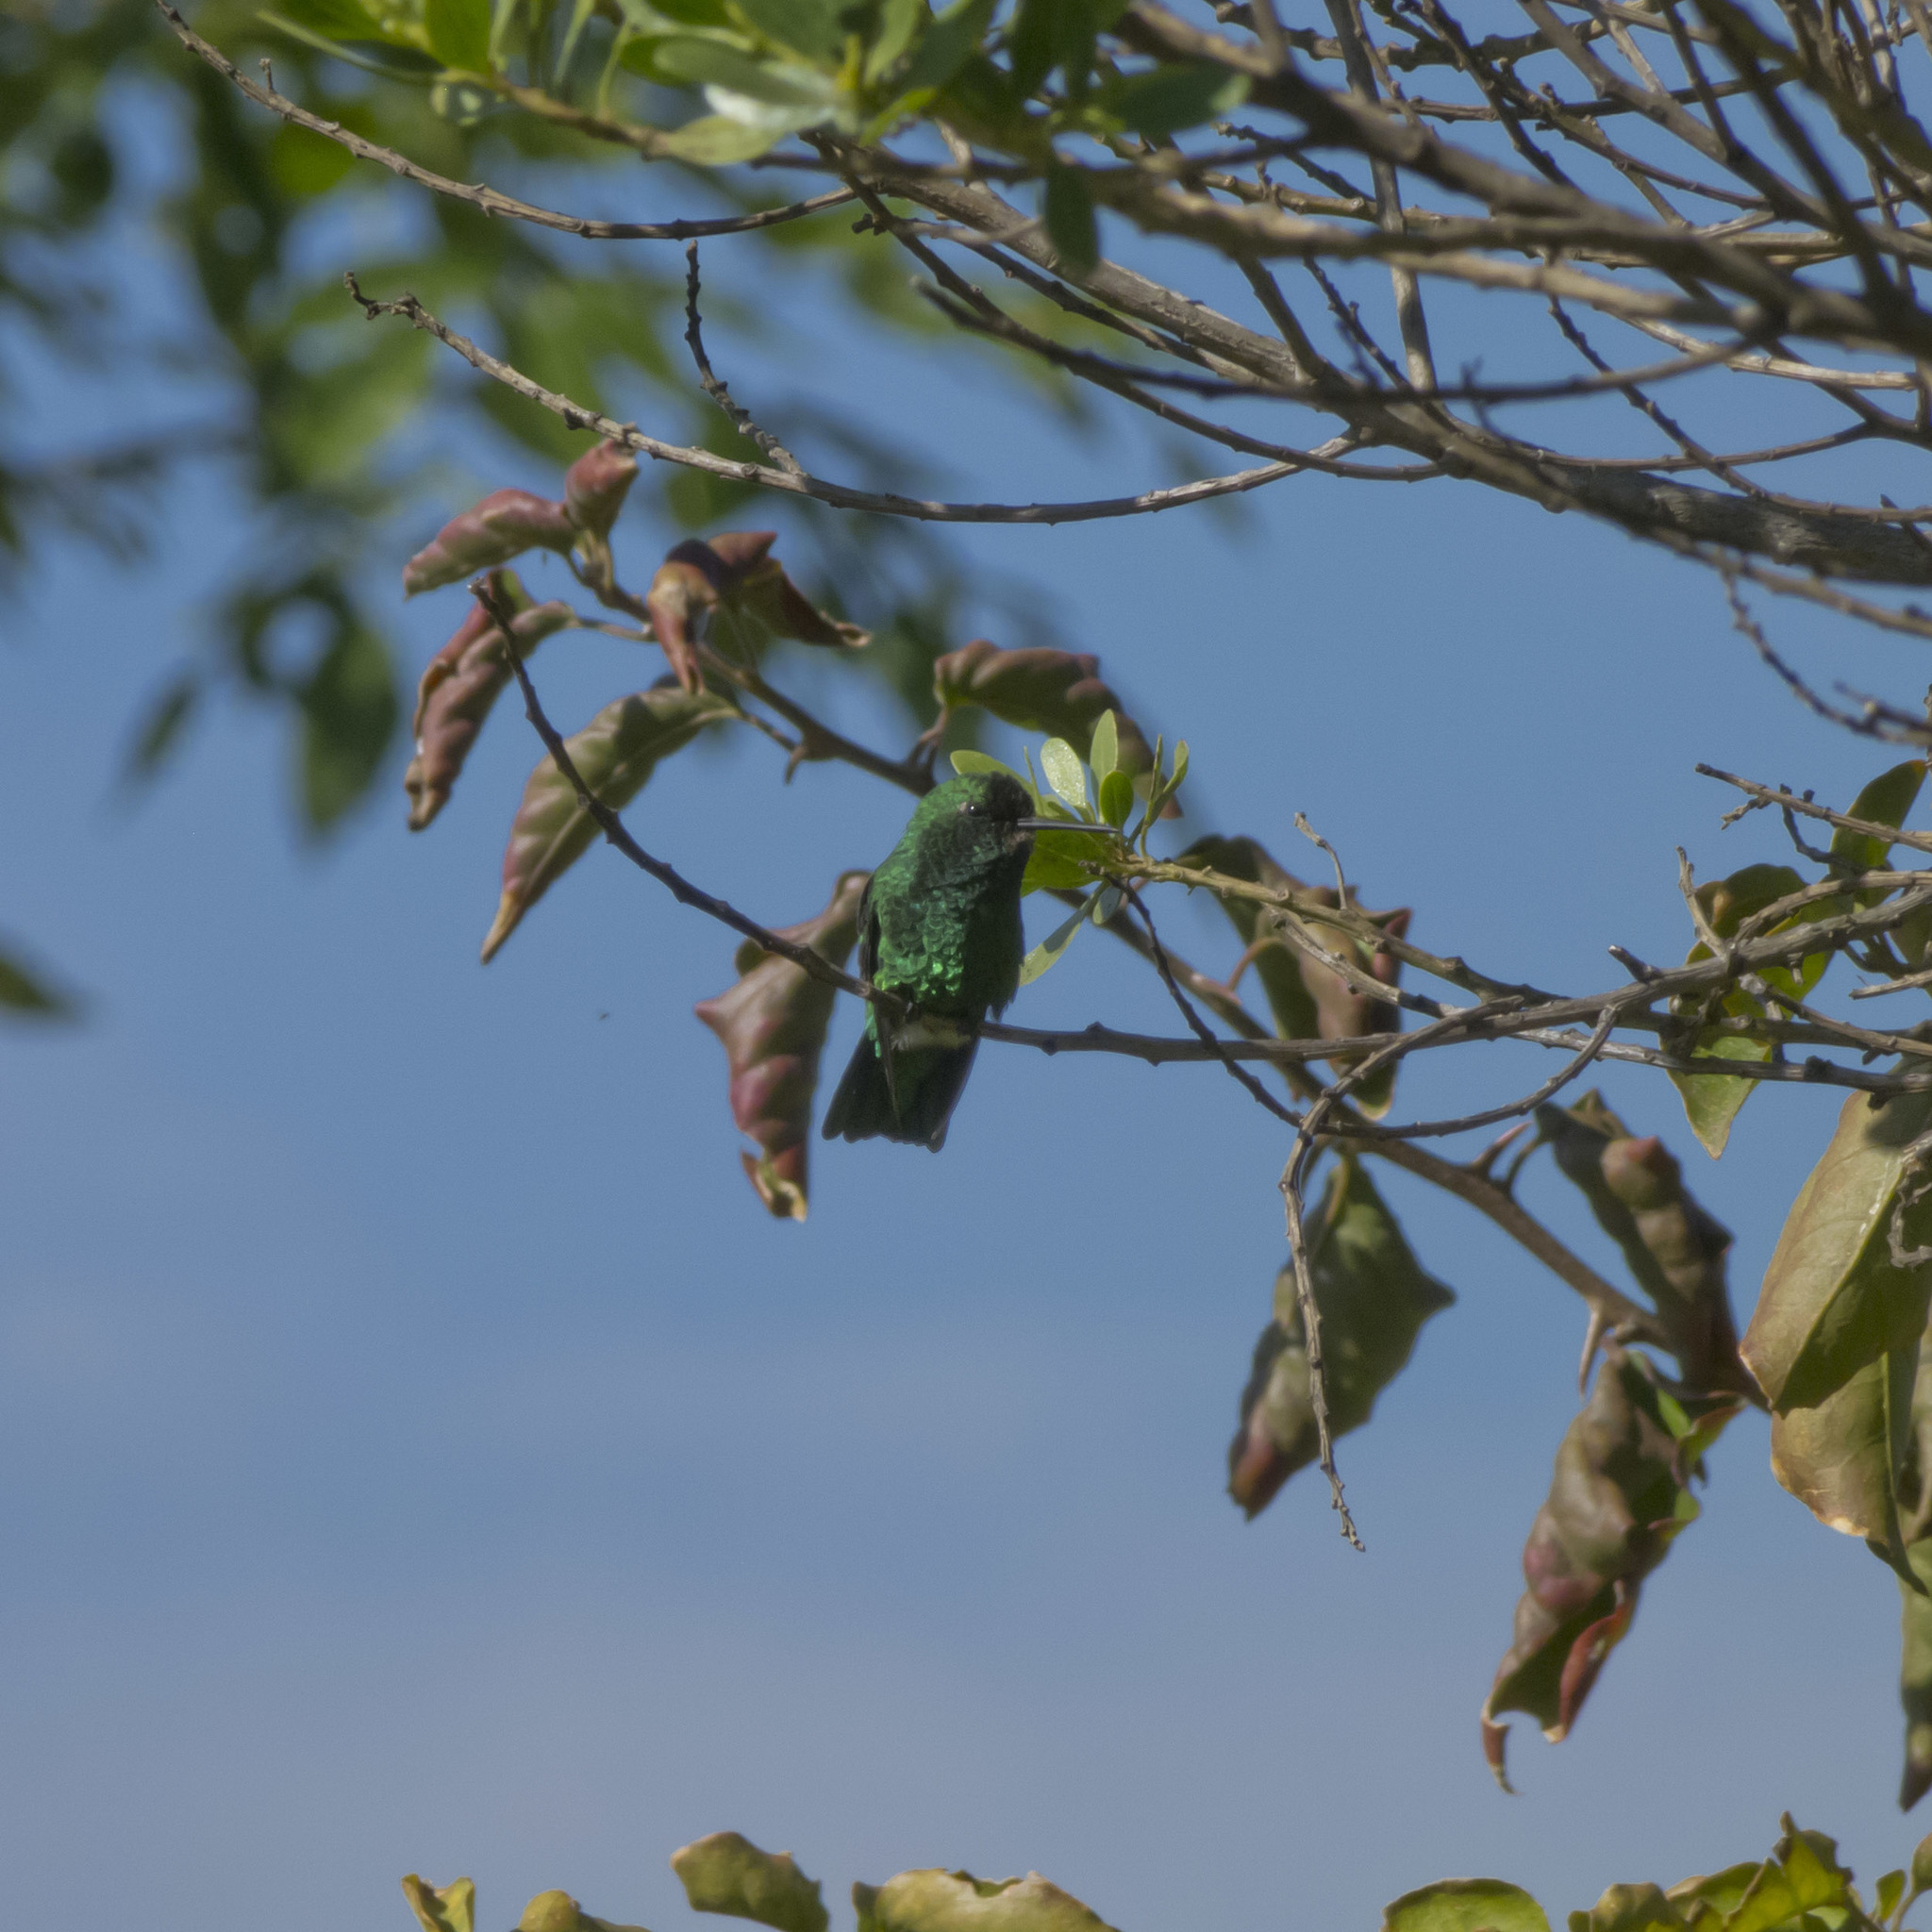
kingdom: Animalia
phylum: Chordata
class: Aves
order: Apodiformes
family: Trochilidae
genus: Chlorostilbon
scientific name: Chlorostilbon poortmani
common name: Short-tailed emerald
